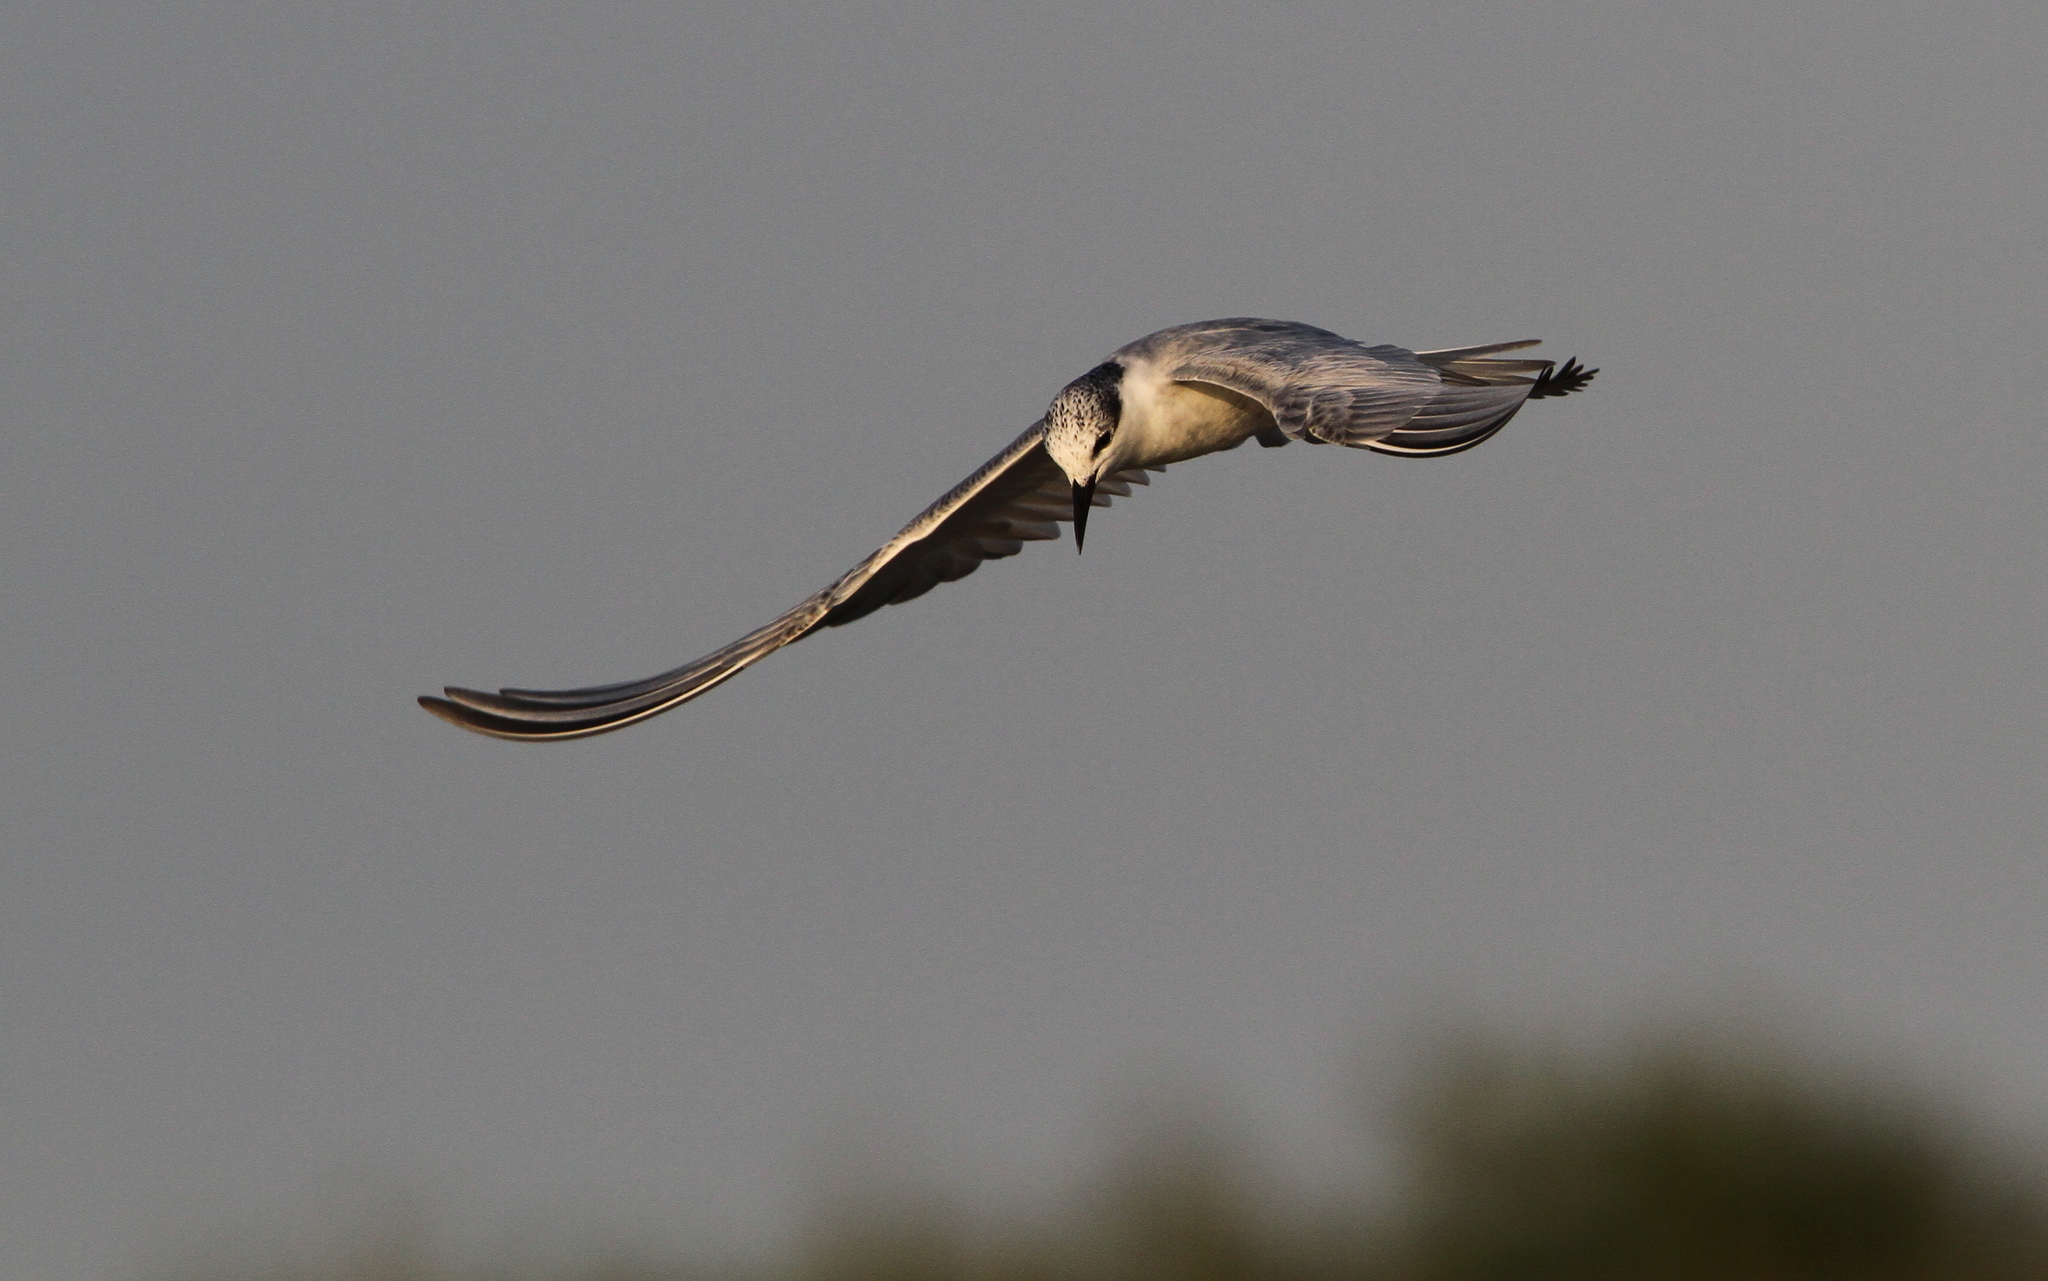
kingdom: Animalia
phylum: Chordata
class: Aves
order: Charadriiformes
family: Laridae
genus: Chlidonias
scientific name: Chlidonias hybrida
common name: Whiskered tern
